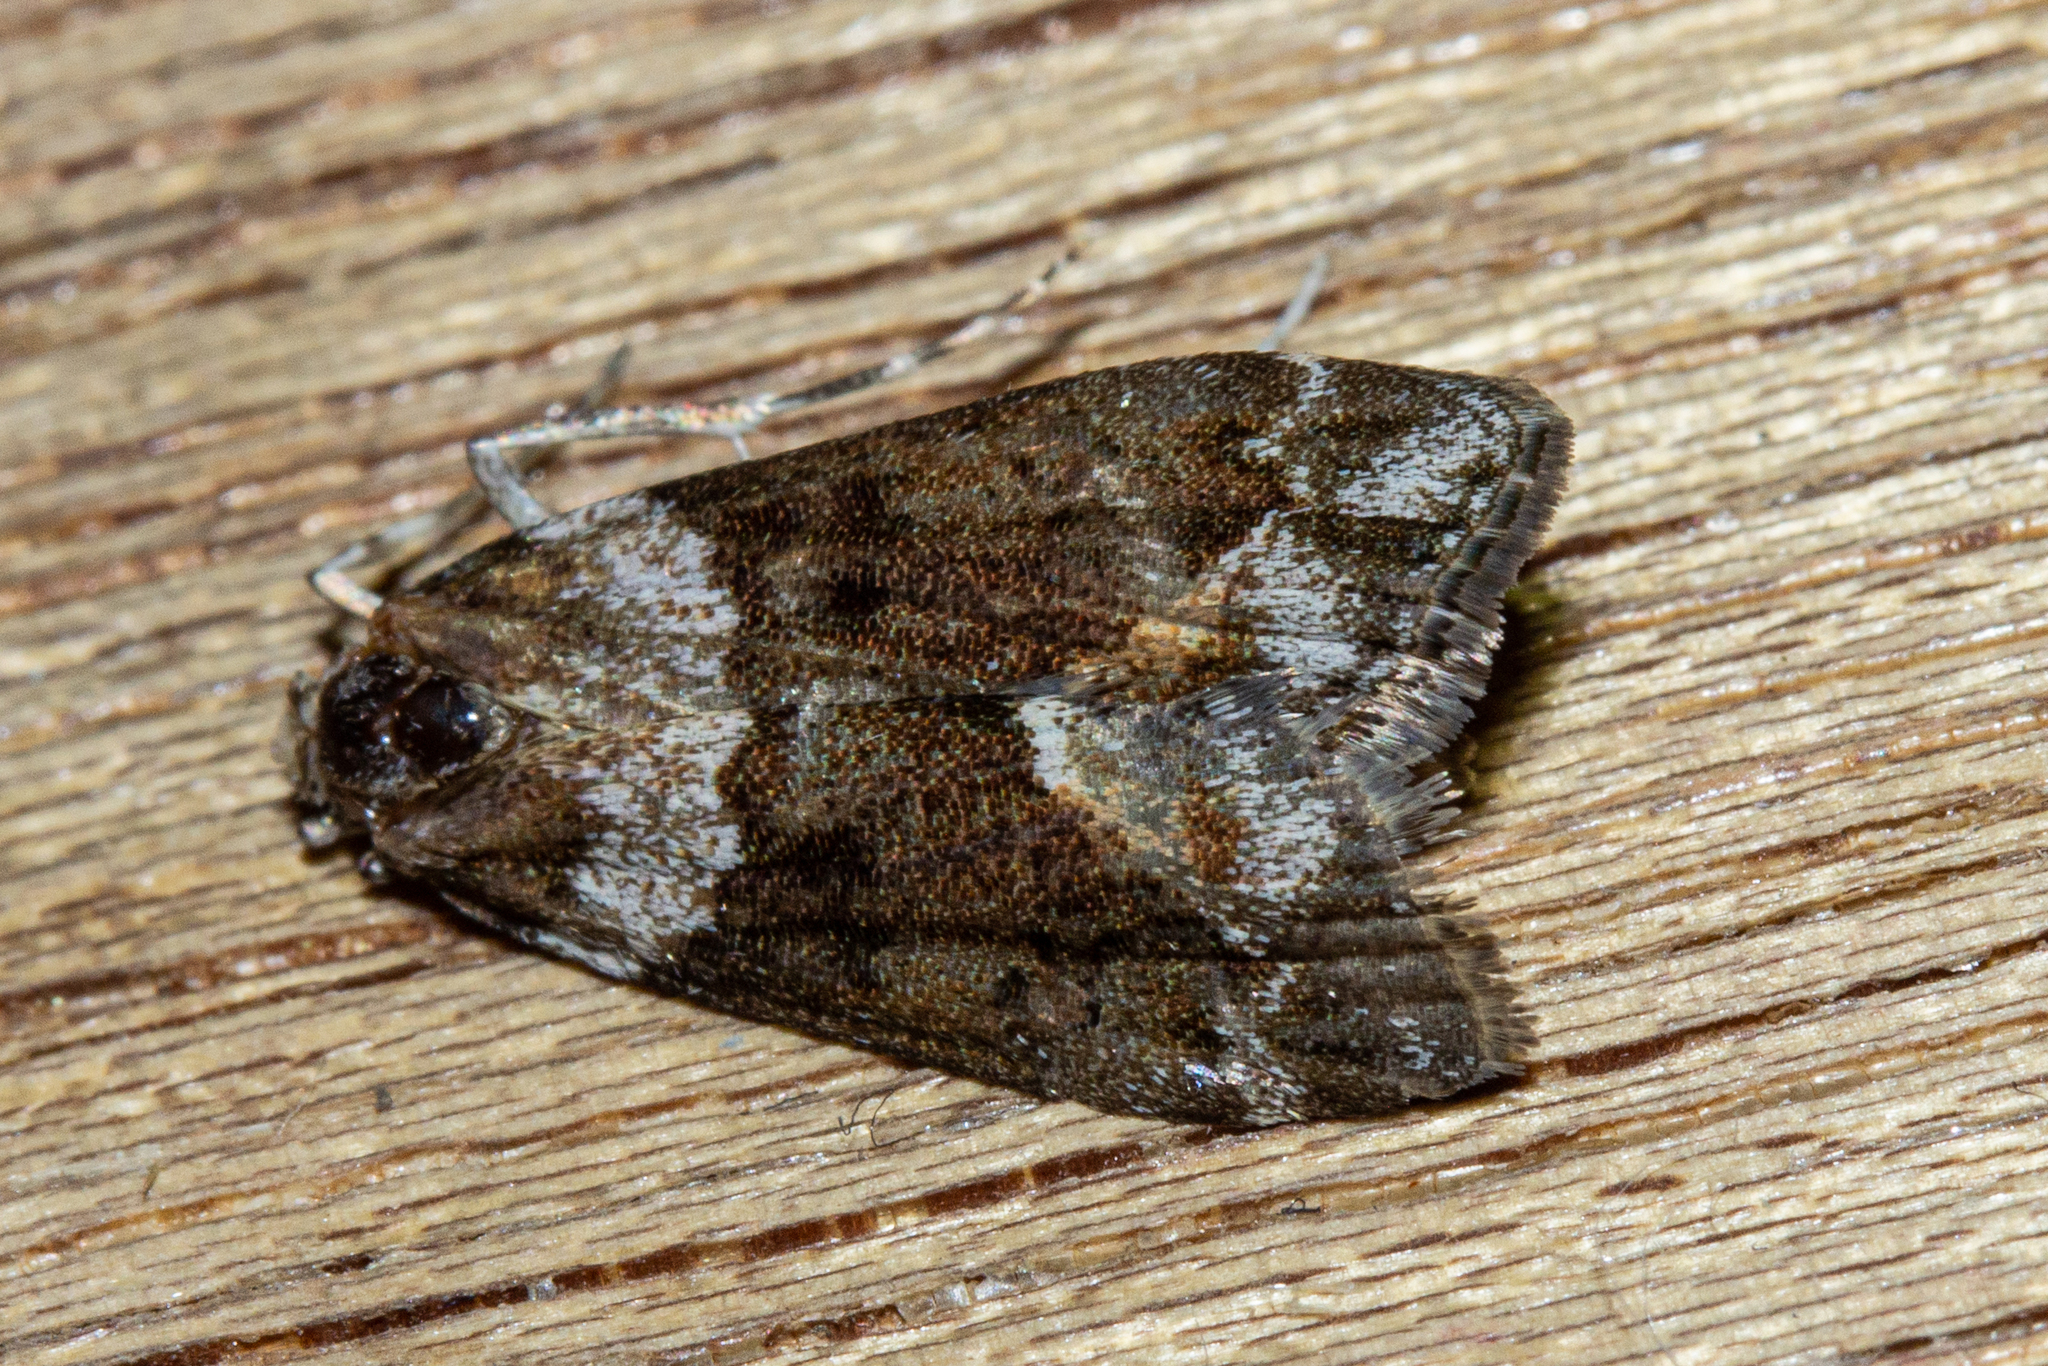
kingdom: Animalia
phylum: Arthropoda
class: Insecta
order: Lepidoptera
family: Crambidae
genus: Eudonia
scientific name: Eudonia submarginalis
